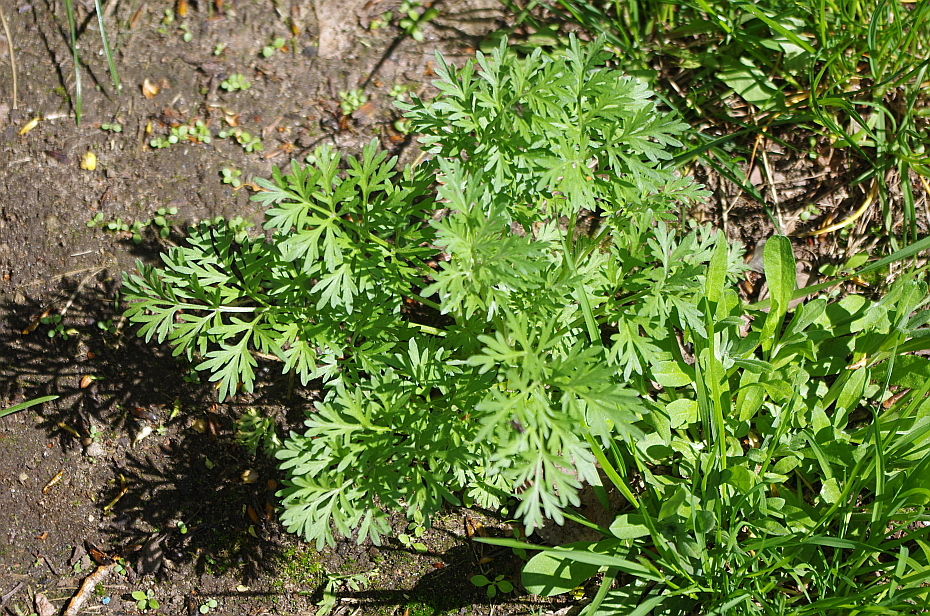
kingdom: Plantae
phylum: Tracheophyta
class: Magnoliopsida
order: Asterales
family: Asteraceae
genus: Artemisia
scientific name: Artemisia absinthium
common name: Wormwood
